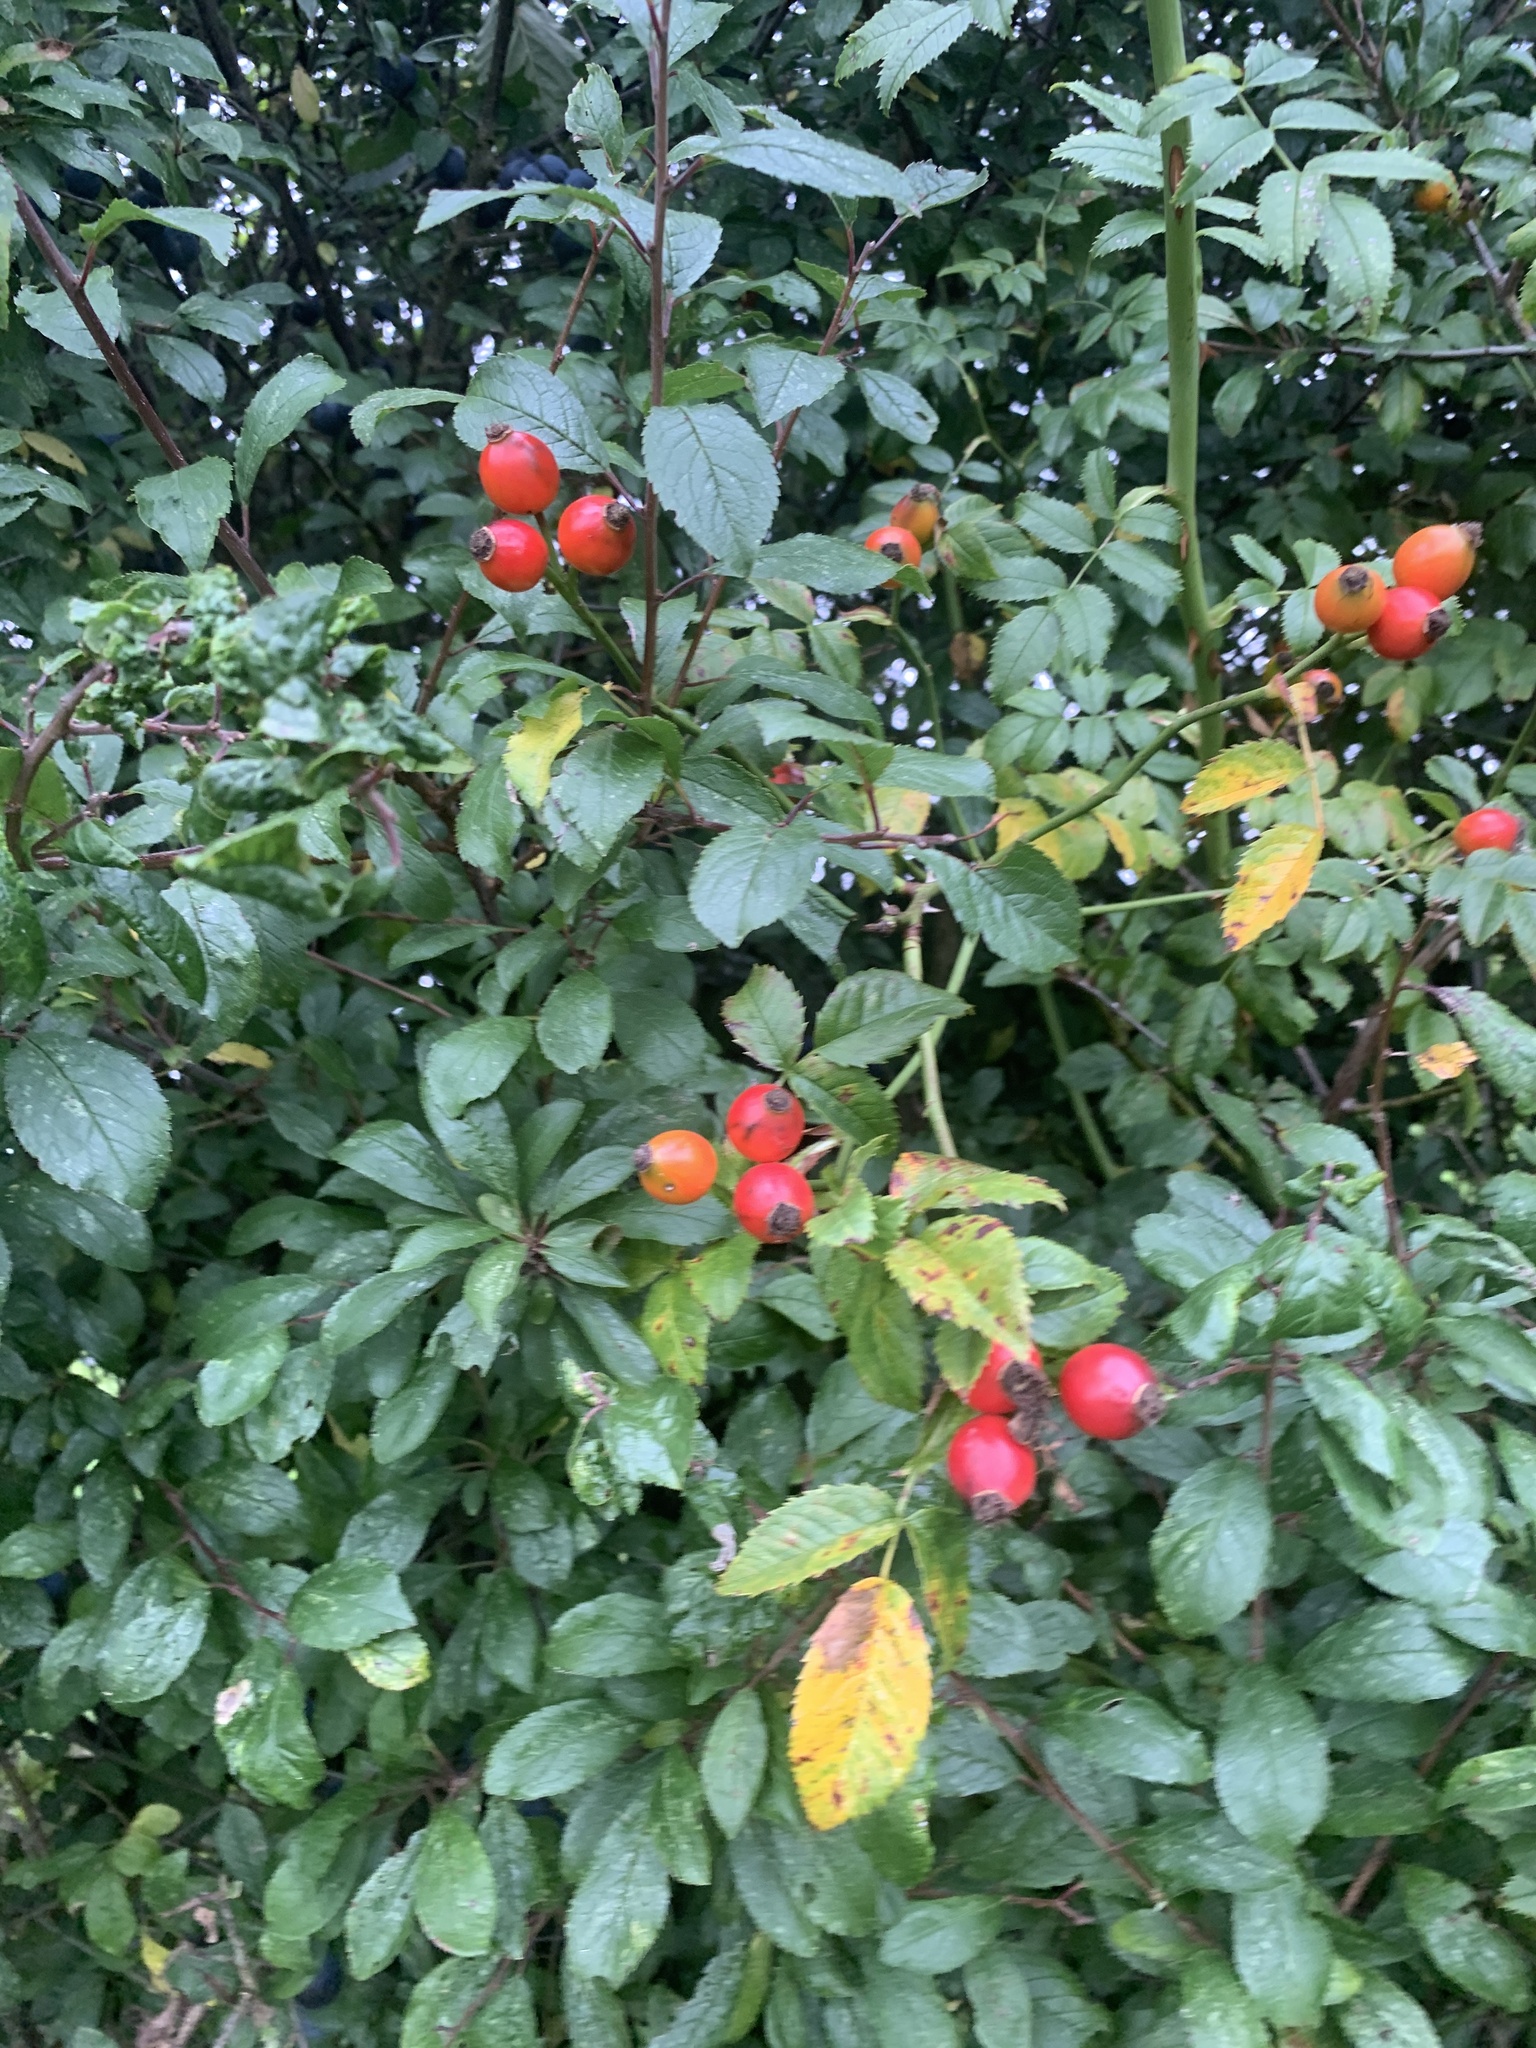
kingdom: Plantae
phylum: Tracheophyta
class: Magnoliopsida
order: Rosales
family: Rosaceae
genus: Rosa
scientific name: Rosa canina
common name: Dog rose
